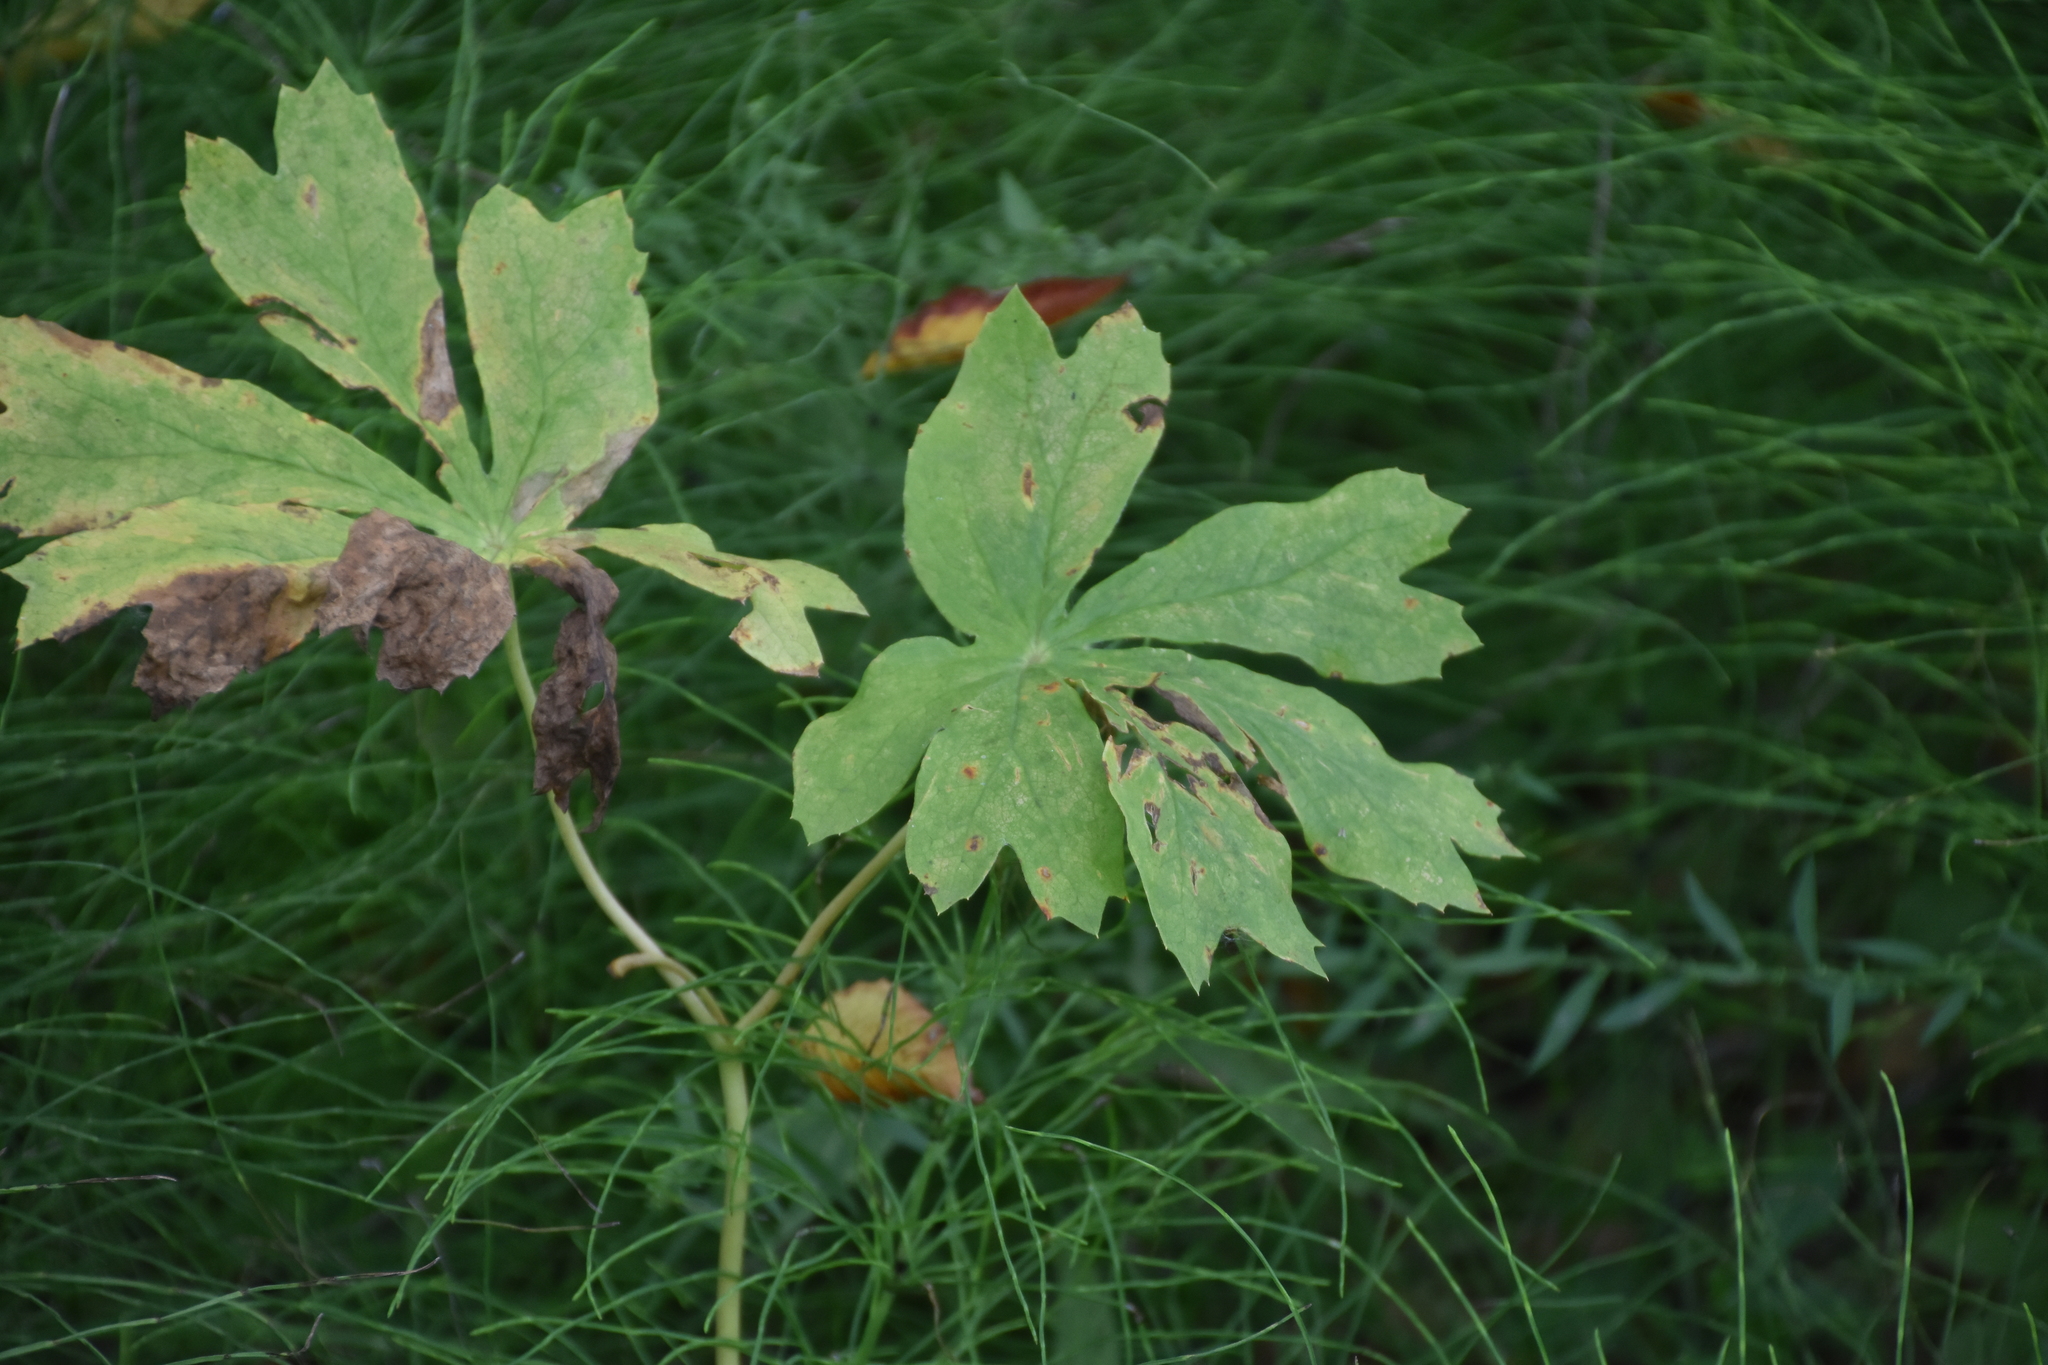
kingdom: Plantae
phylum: Tracheophyta
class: Magnoliopsida
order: Ranunculales
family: Berberidaceae
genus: Podophyllum
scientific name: Podophyllum peltatum
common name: Wild mandrake
